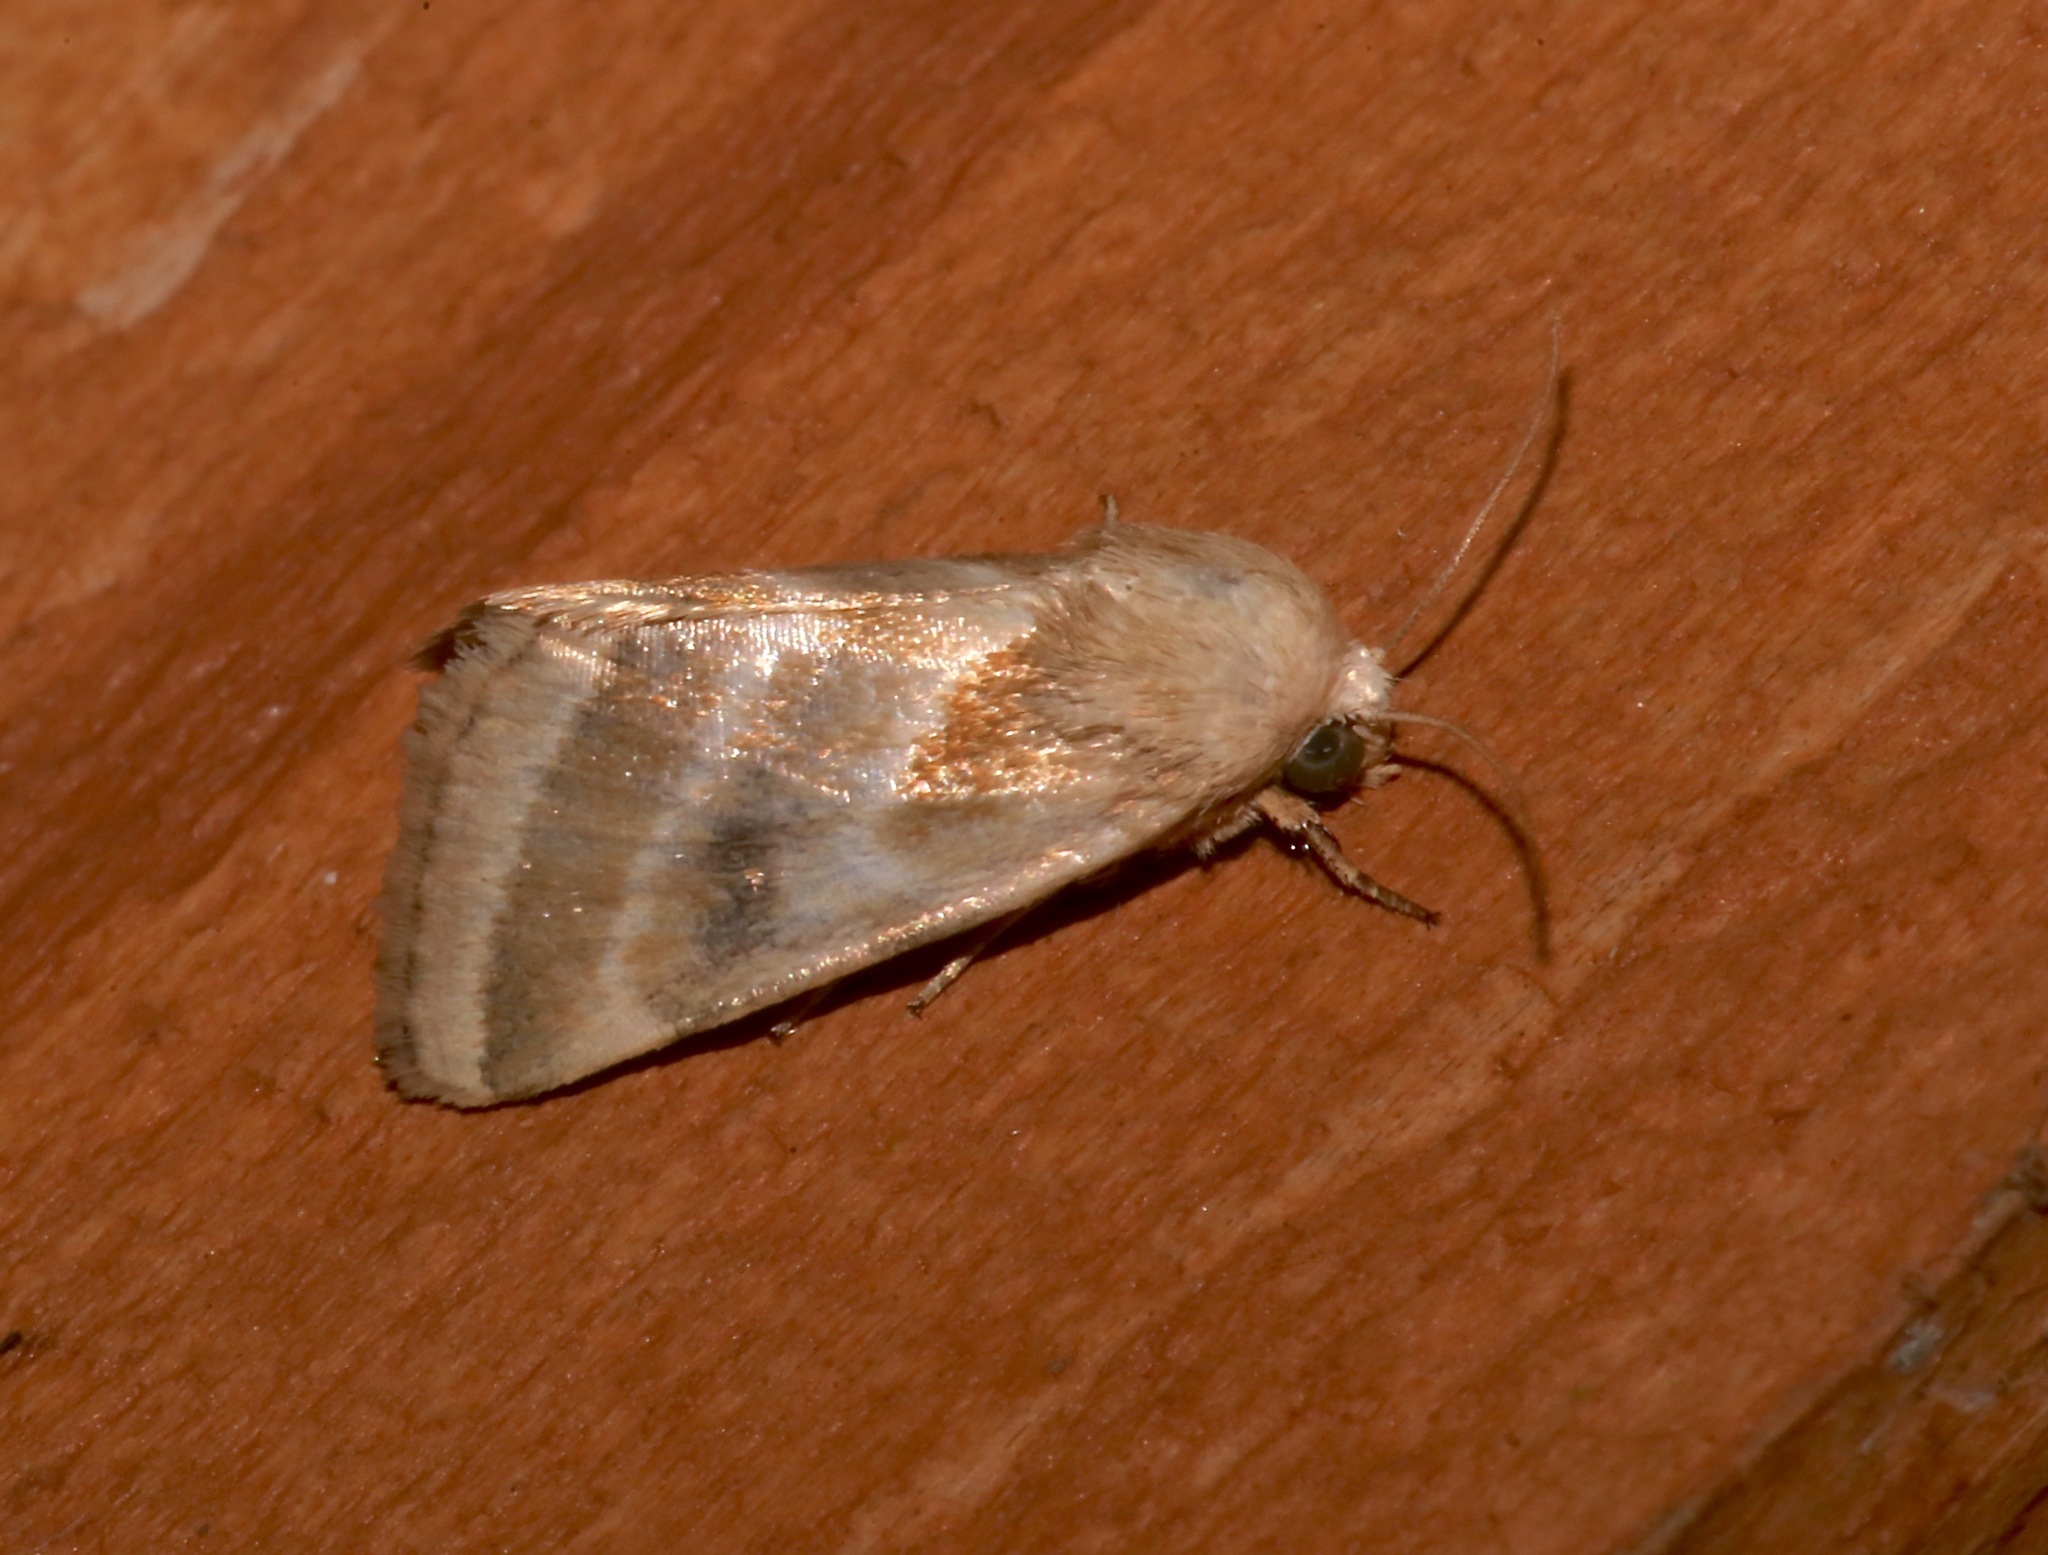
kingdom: Animalia
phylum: Arthropoda
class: Insecta
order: Lepidoptera
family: Noctuidae
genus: Schinia
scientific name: Schinia trifascia
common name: Three-lined flower moth
